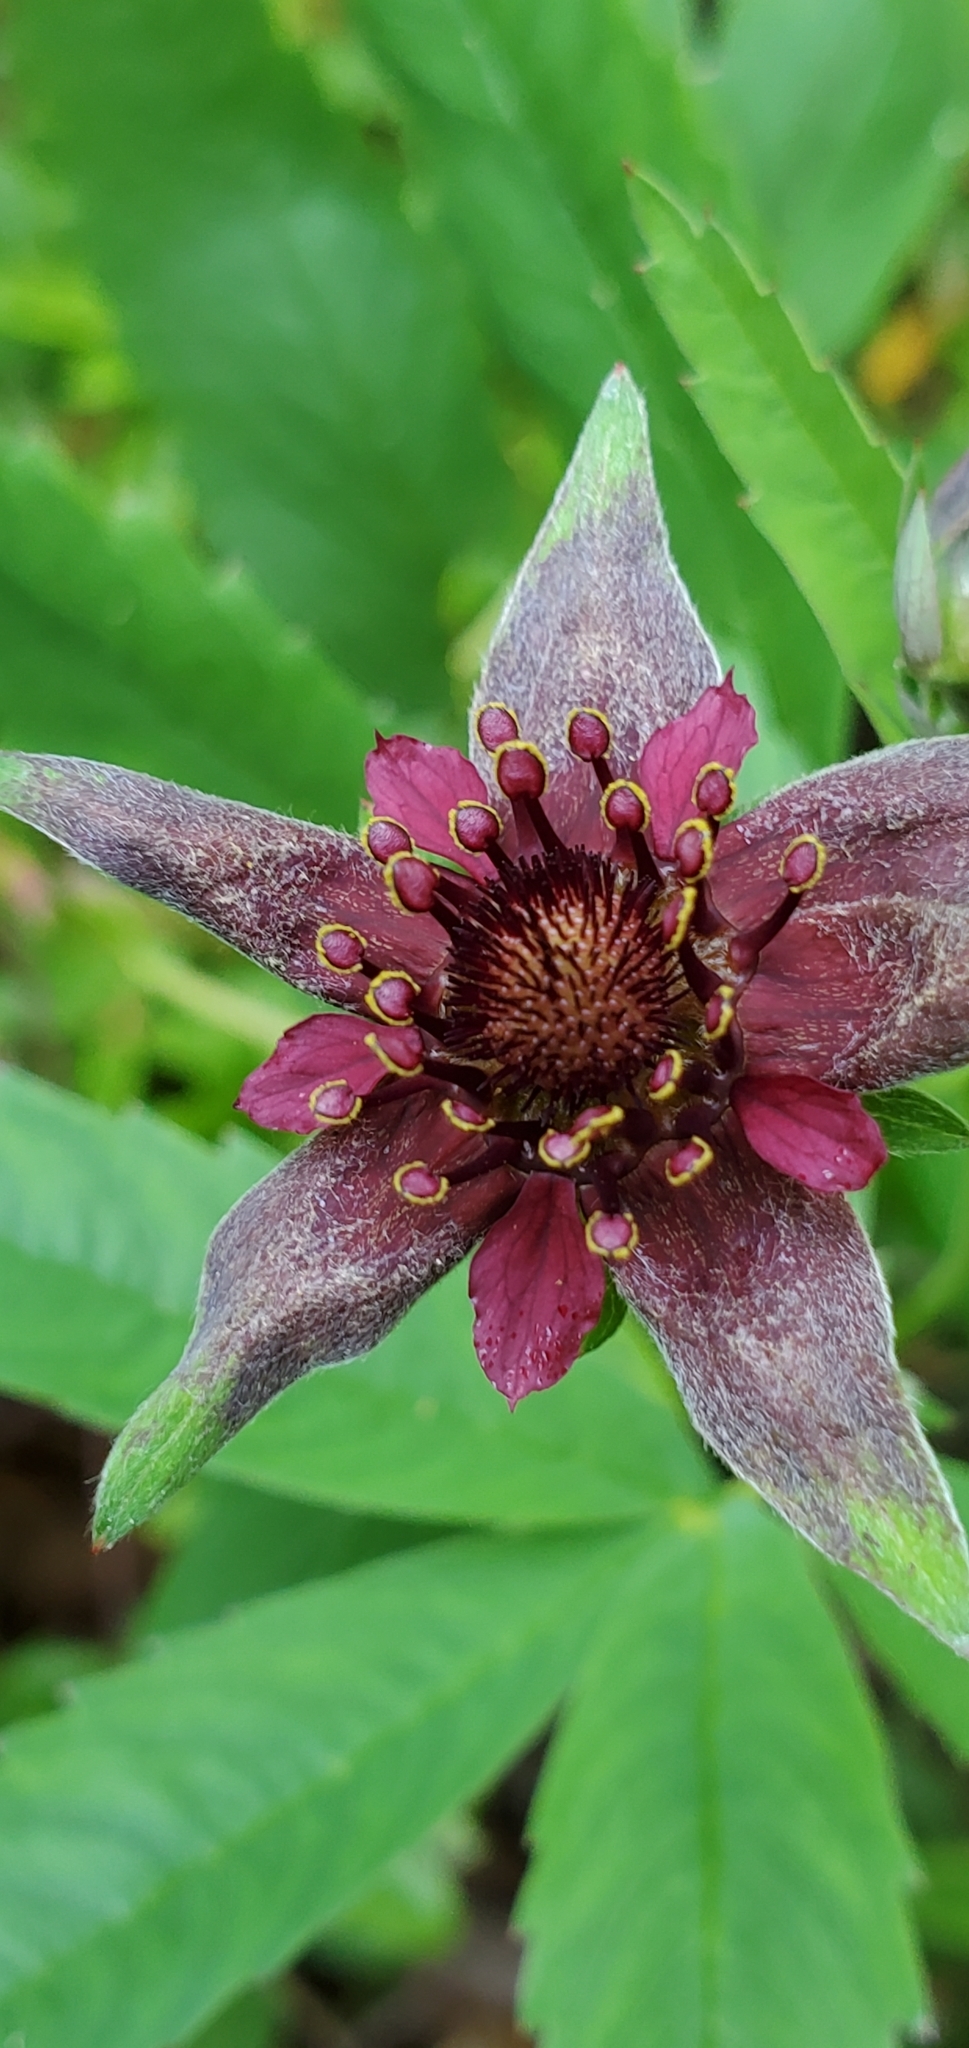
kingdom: Plantae
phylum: Tracheophyta
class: Magnoliopsida
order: Rosales
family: Rosaceae
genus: Comarum
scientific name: Comarum palustre
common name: Marsh cinquefoil
